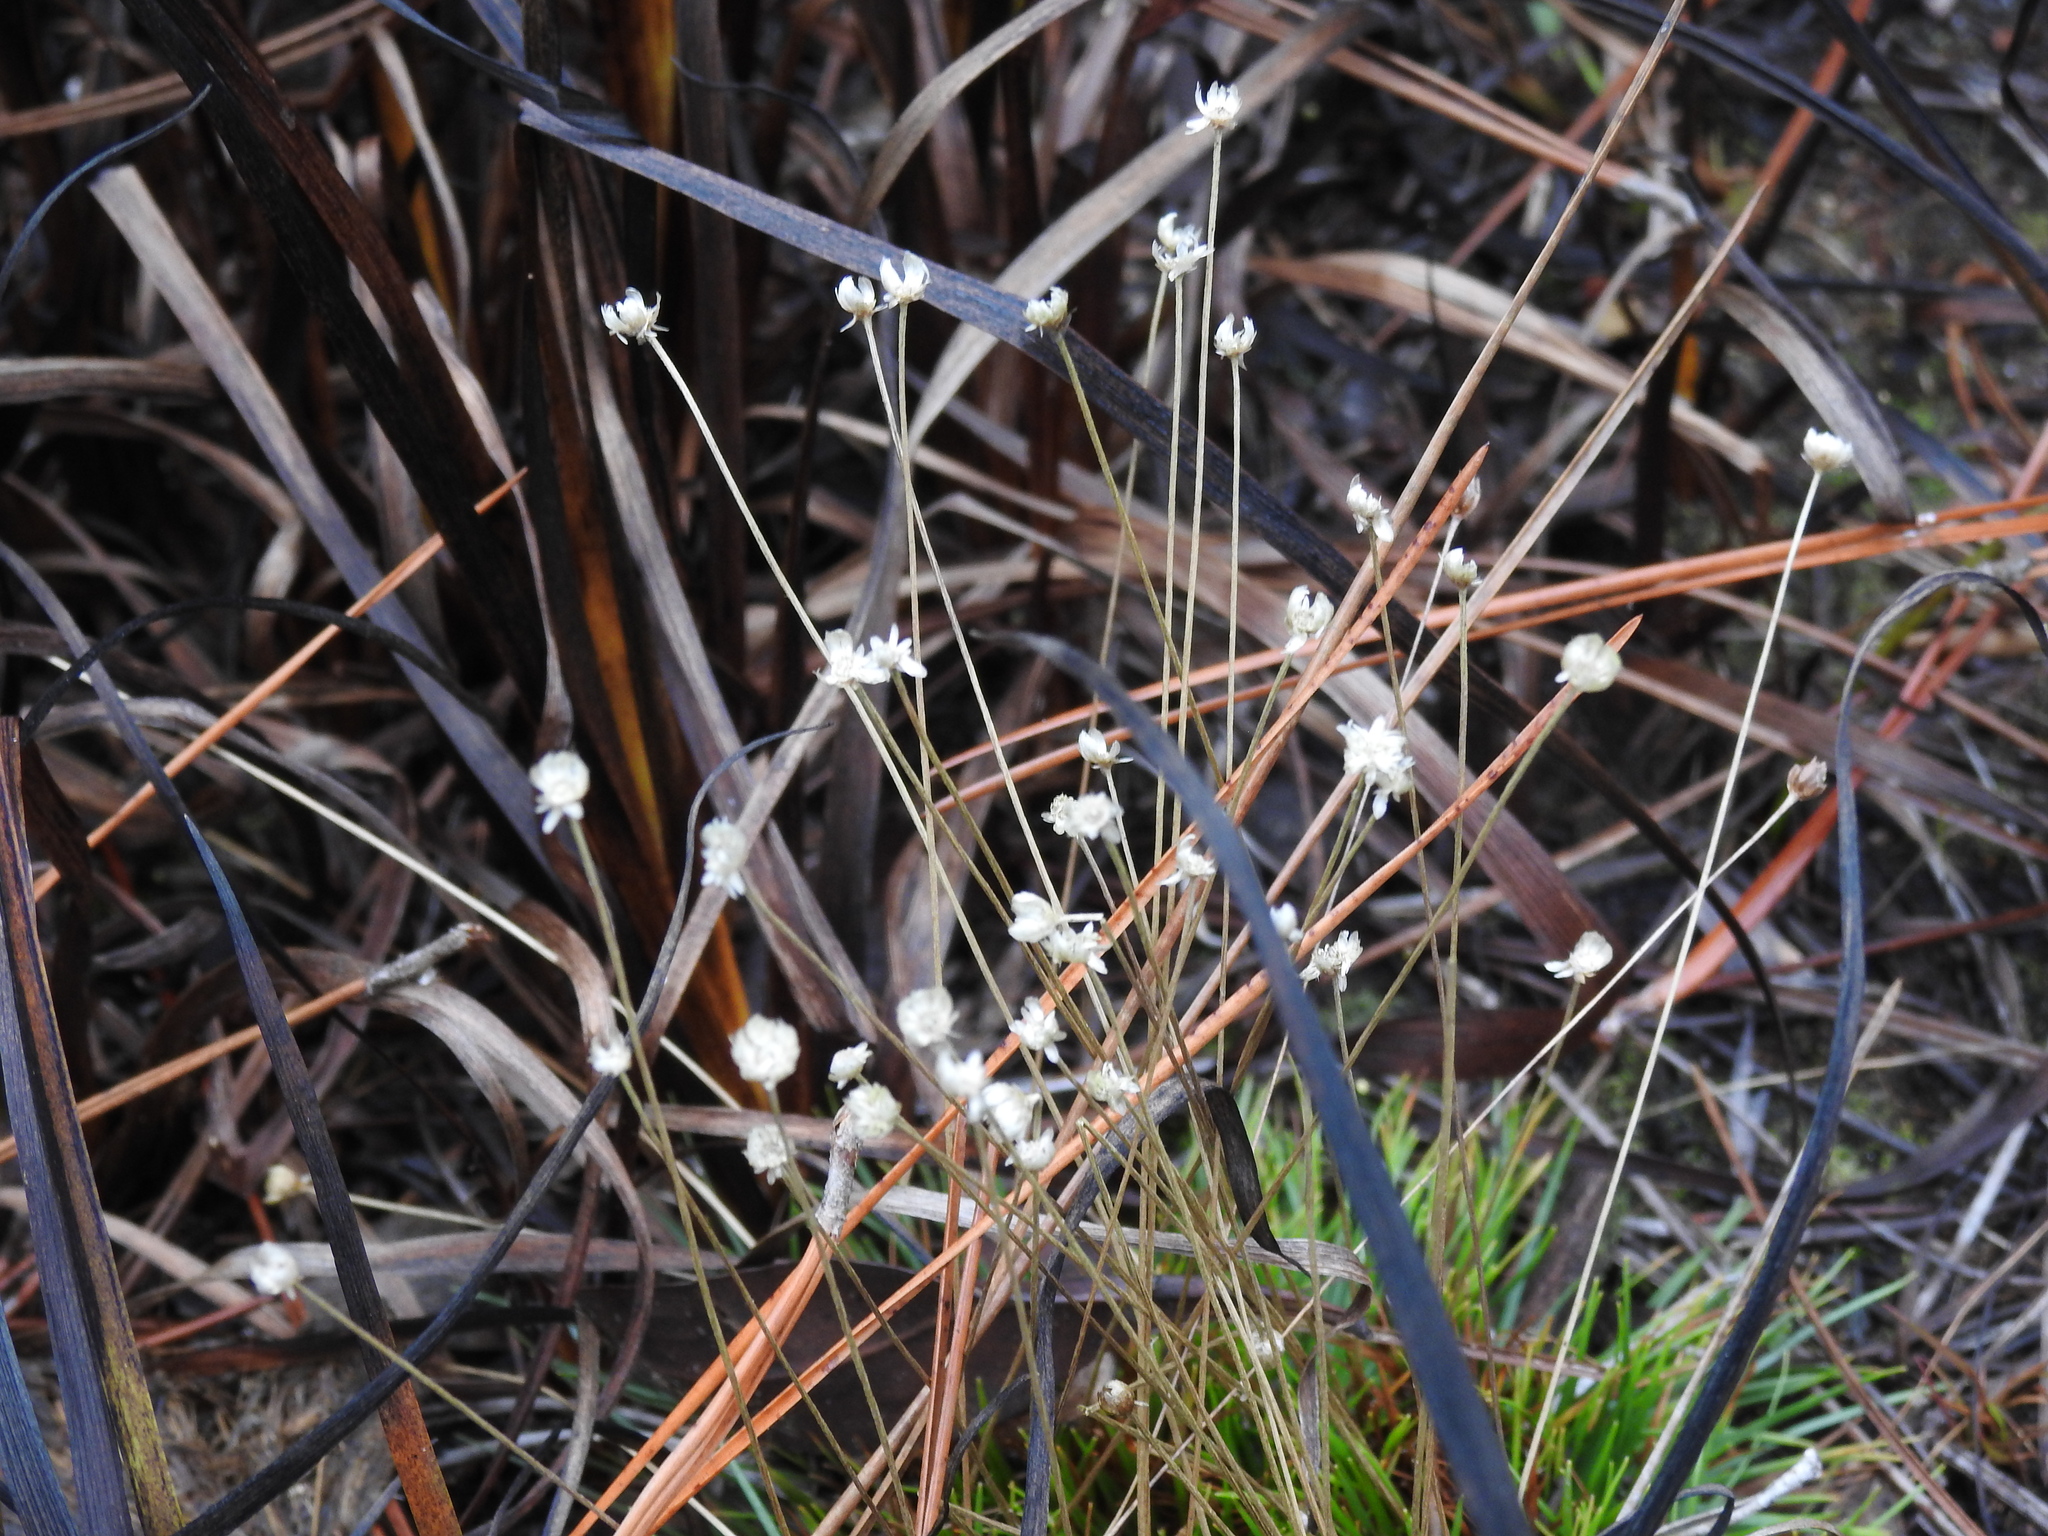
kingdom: Plantae
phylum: Tracheophyta
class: Liliopsida
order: Poales
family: Eriocaulaceae
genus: Syngonanthus
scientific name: Syngonanthus flavidulus
